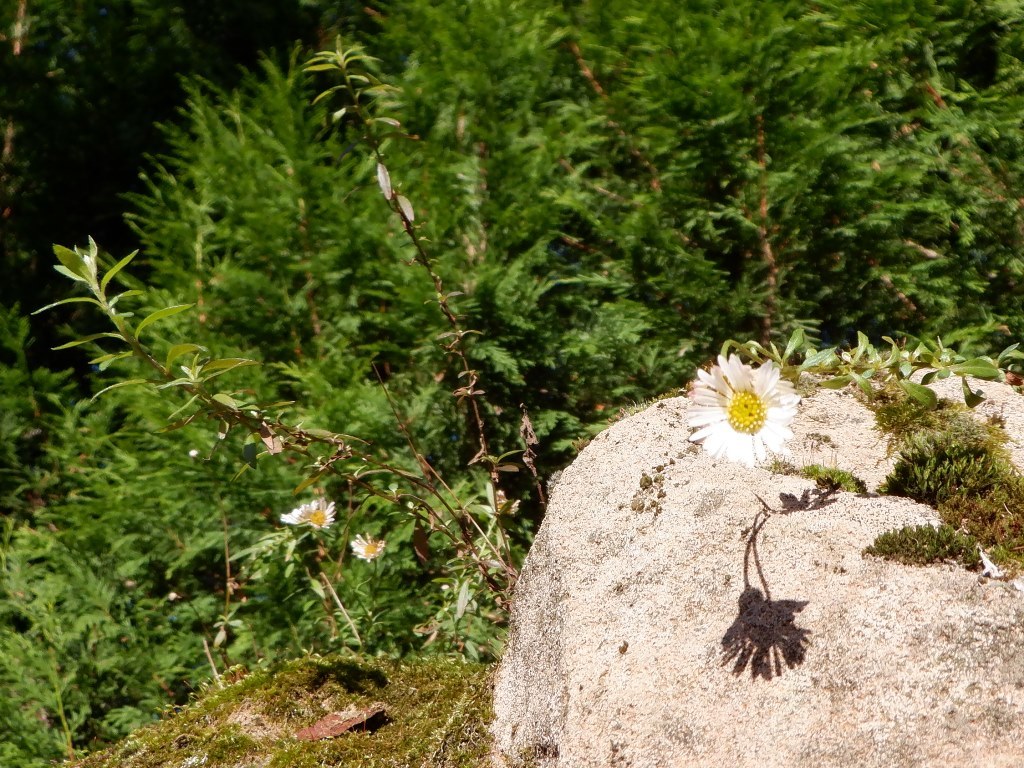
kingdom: Plantae
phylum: Tracheophyta
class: Magnoliopsida
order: Asterales
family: Asteraceae
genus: Erigeron
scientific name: Erigeron karvinskianus
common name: Mexican fleabane
